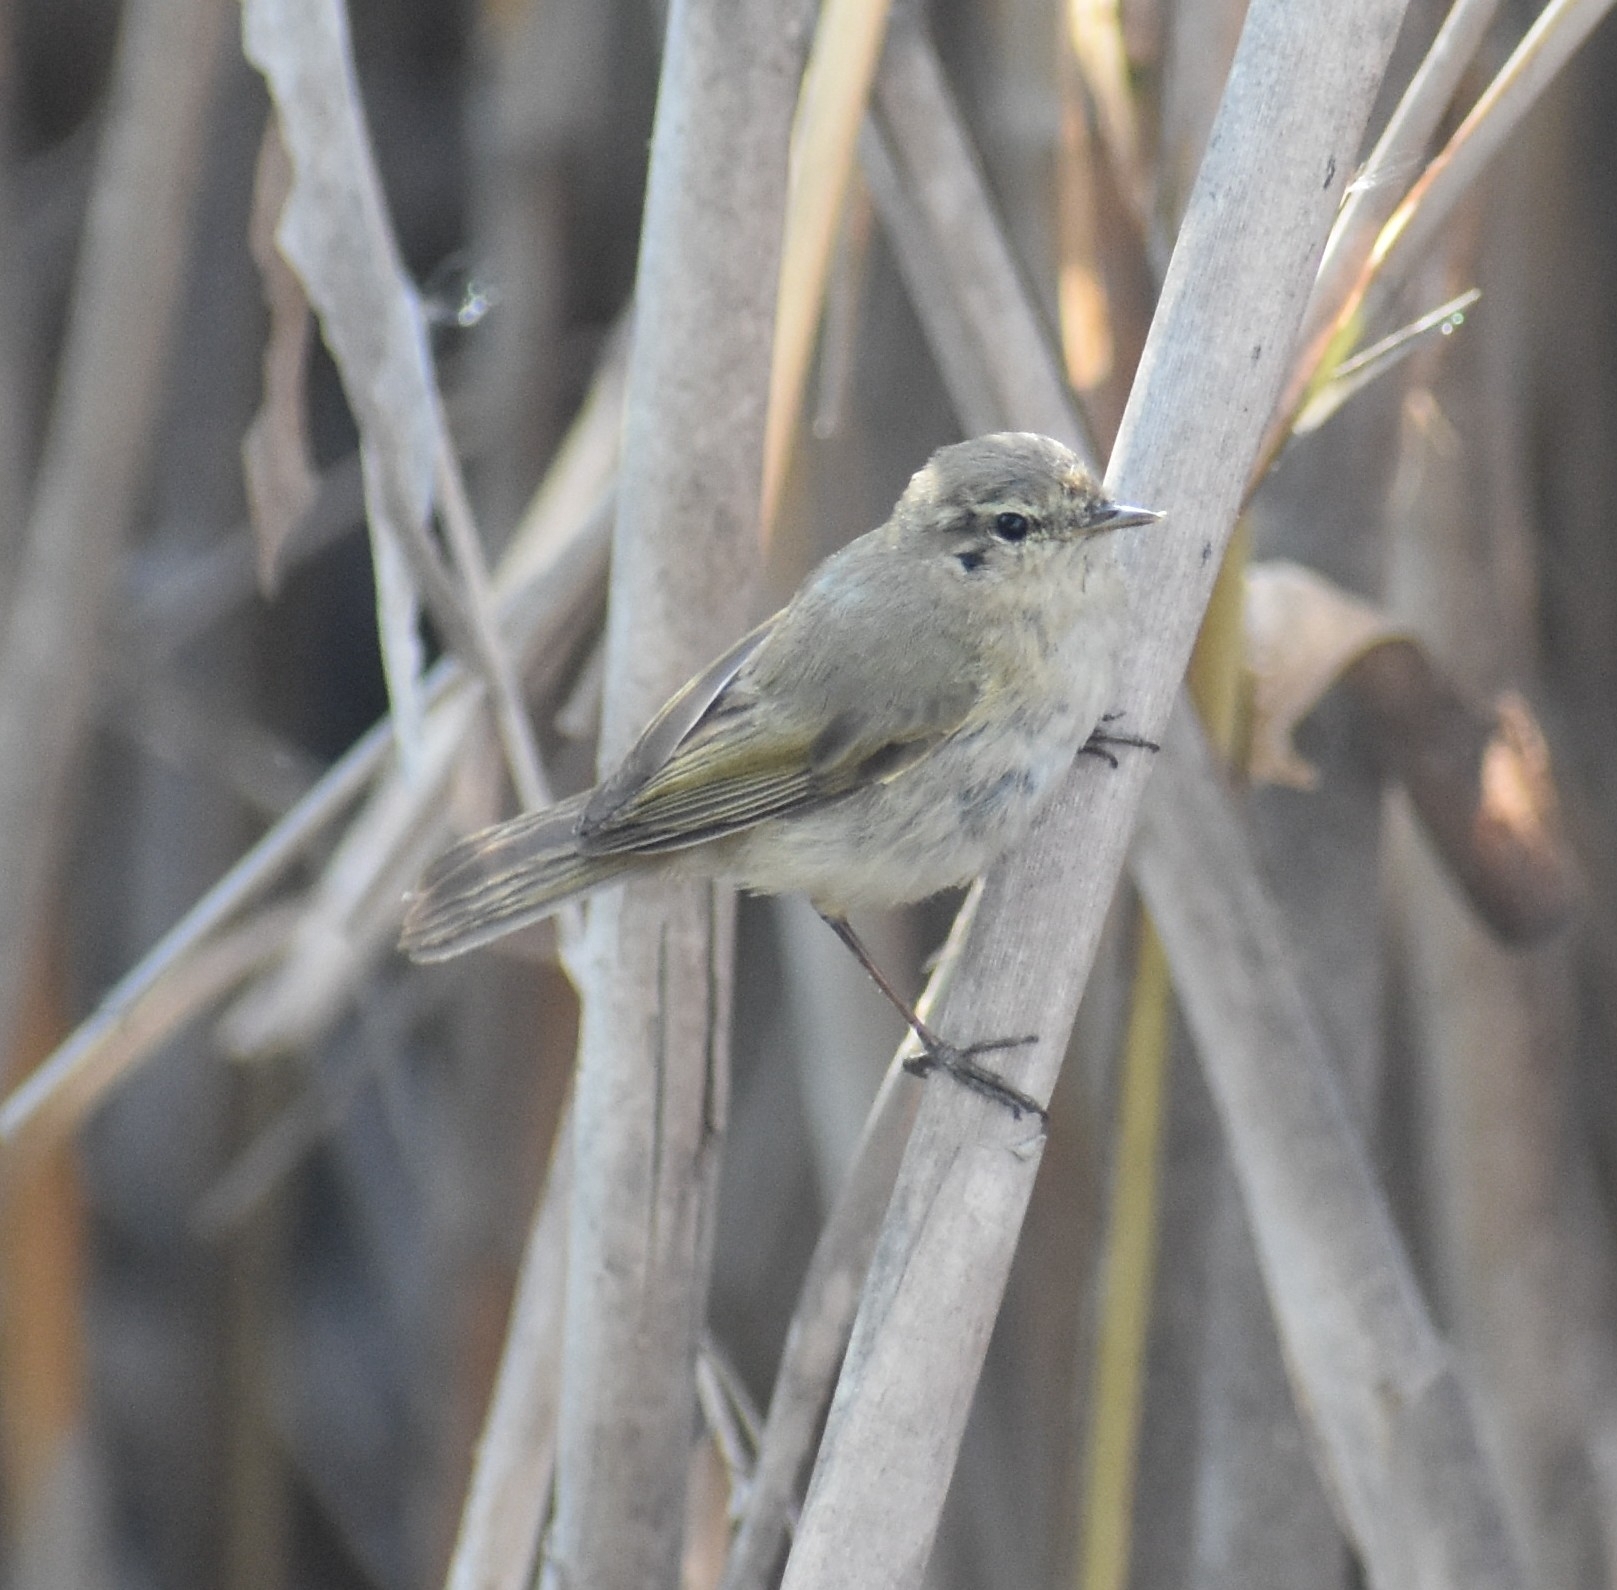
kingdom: Animalia
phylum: Chordata
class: Aves
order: Passeriformes
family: Phylloscopidae
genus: Phylloscopus
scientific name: Phylloscopus collybita
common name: Common chiffchaff
